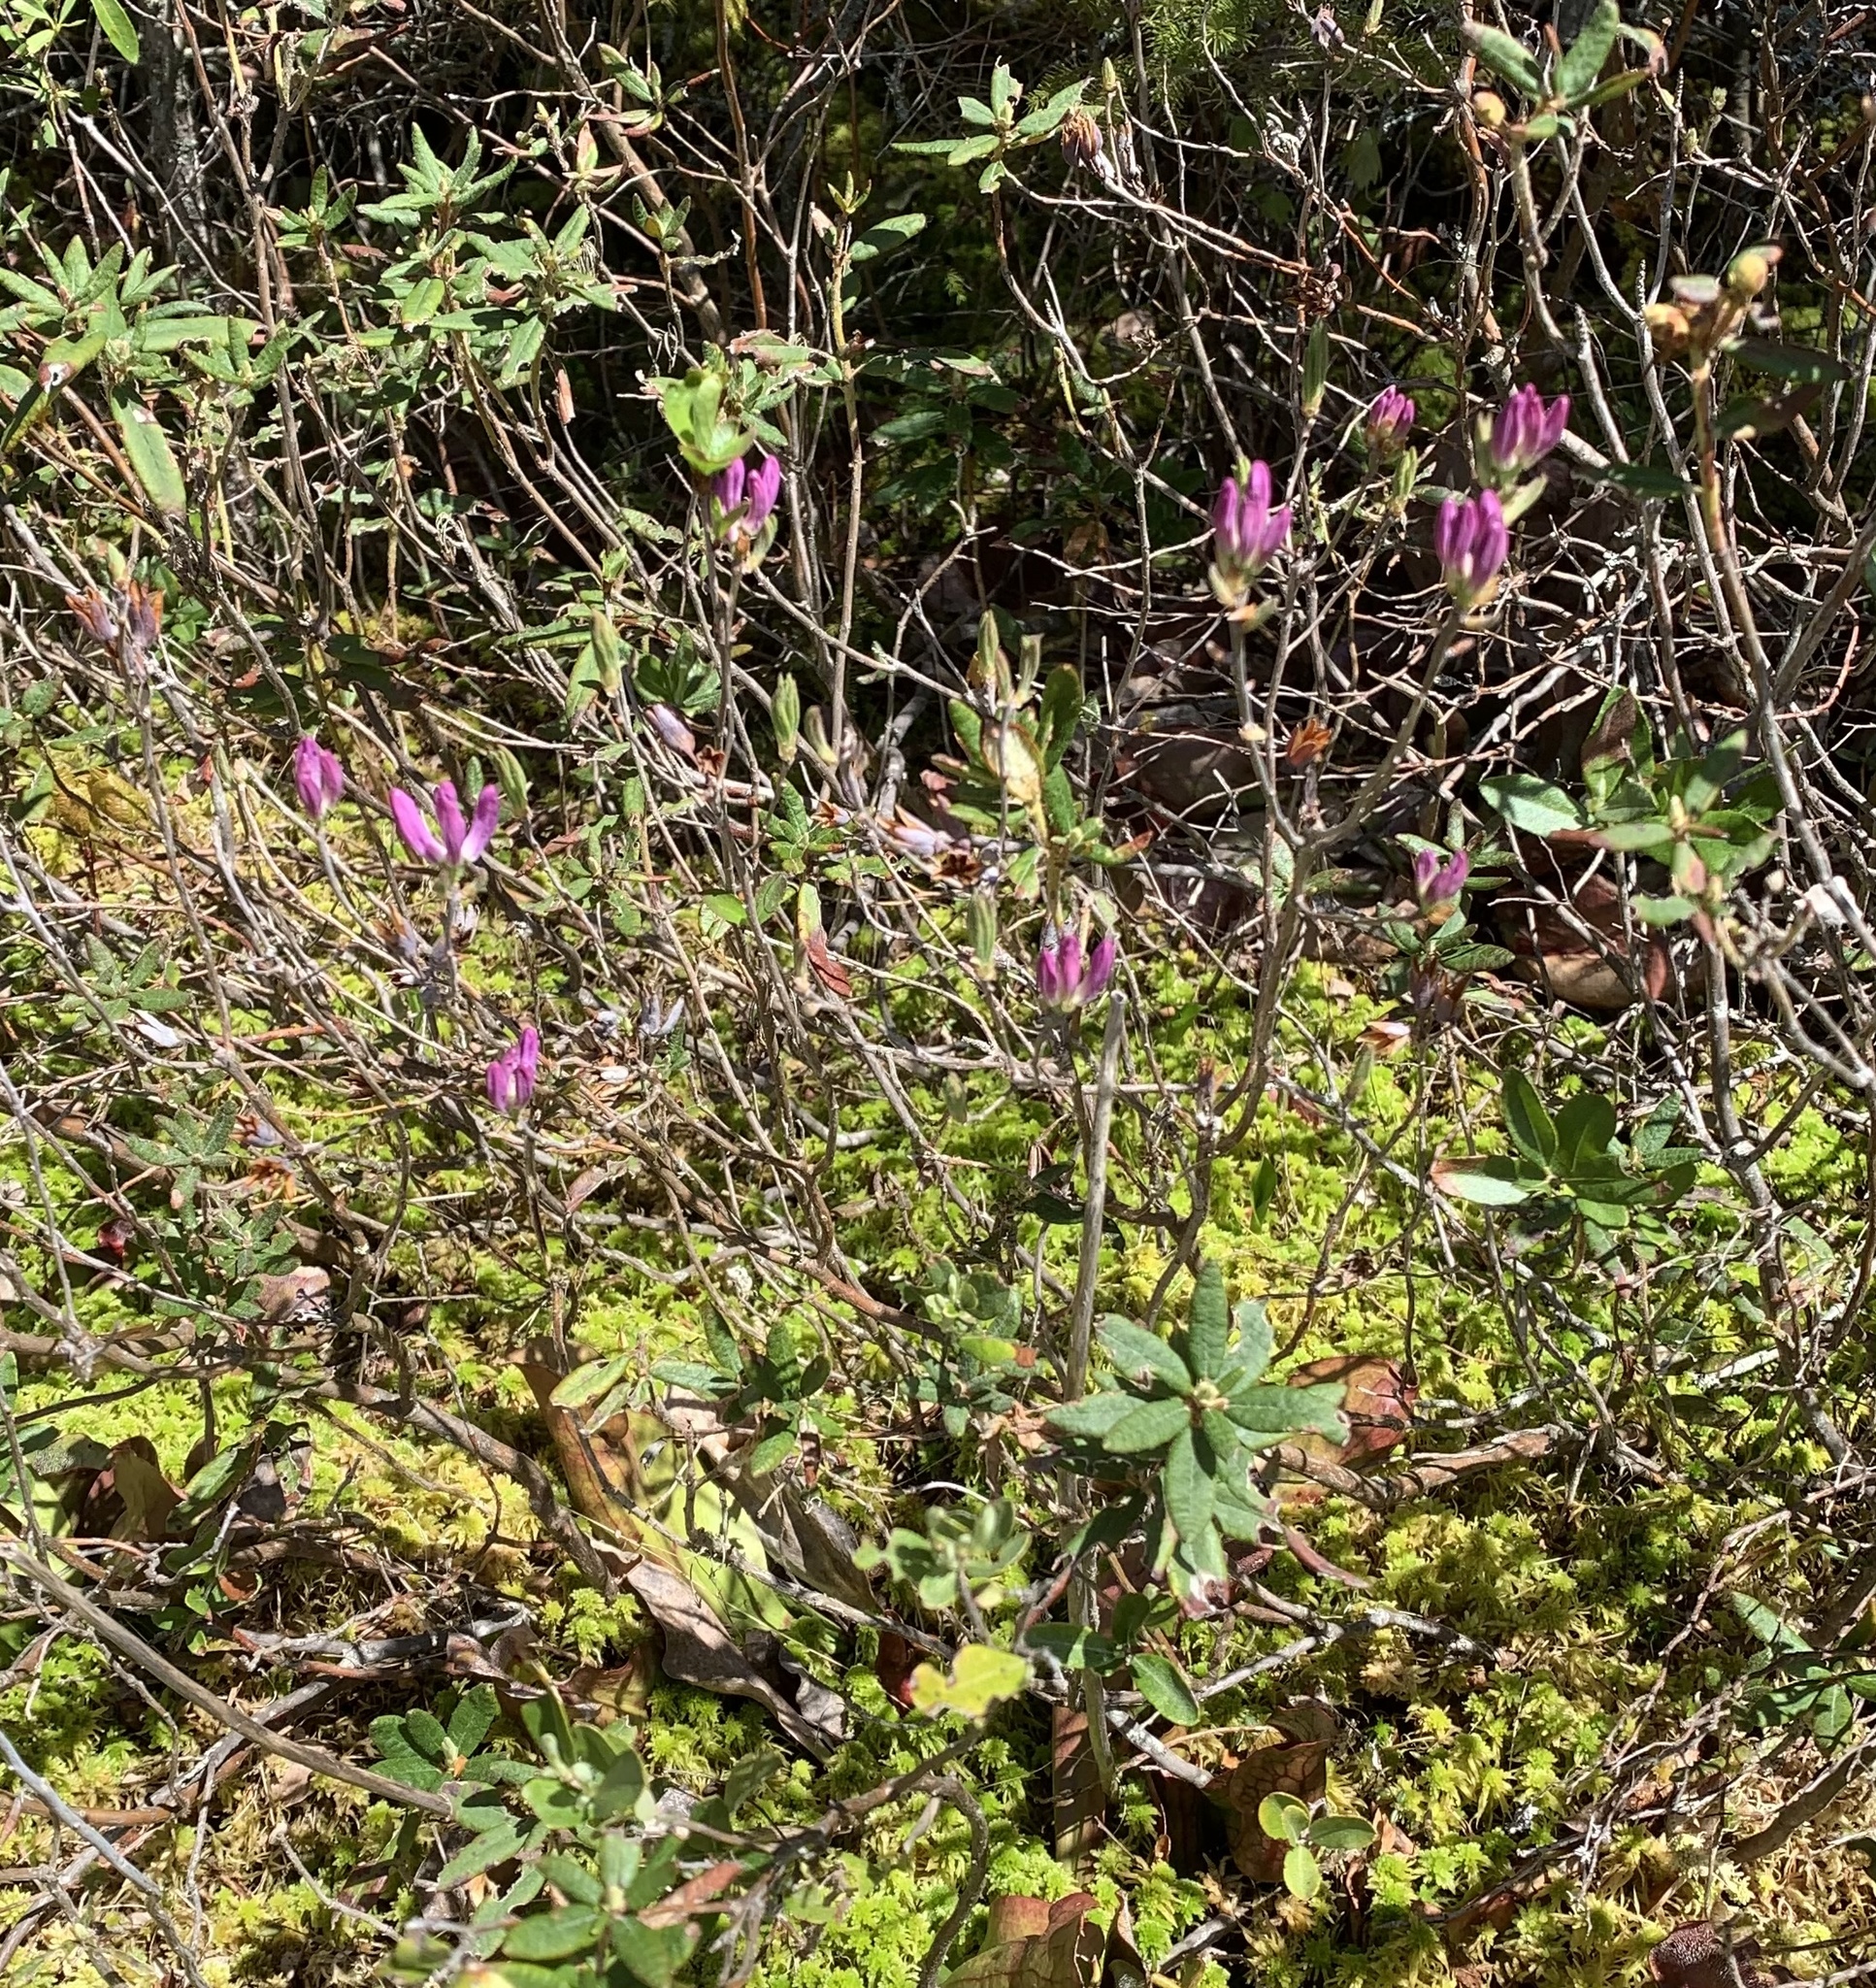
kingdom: Plantae
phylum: Tracheophyta
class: Magnoliopsida
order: Ericales
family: Ericaceae
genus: Rhododendron
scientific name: Rhododendron canadense
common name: Rhodora
